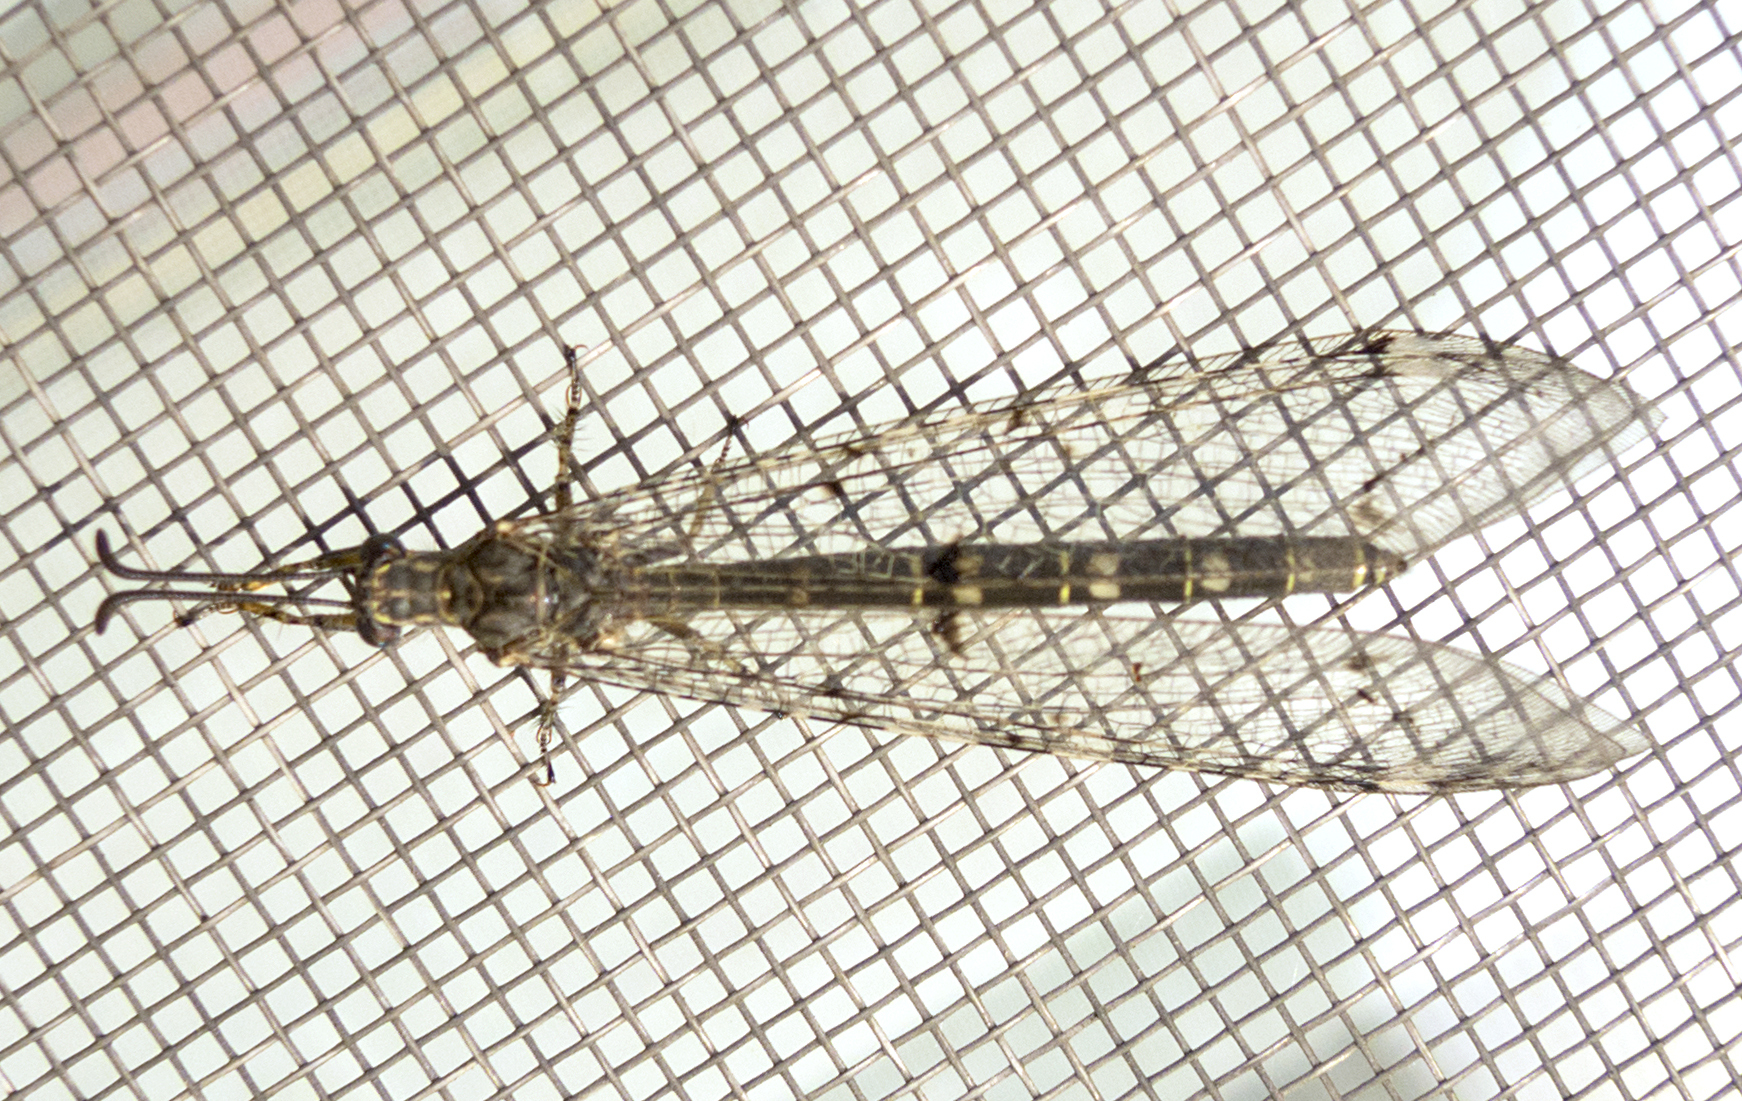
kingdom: Animalia
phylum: Arthropoda
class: Insecta
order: Neuroptera
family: Myrmeleontidae
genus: Distoleon
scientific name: Distoleon tetragrammicus
